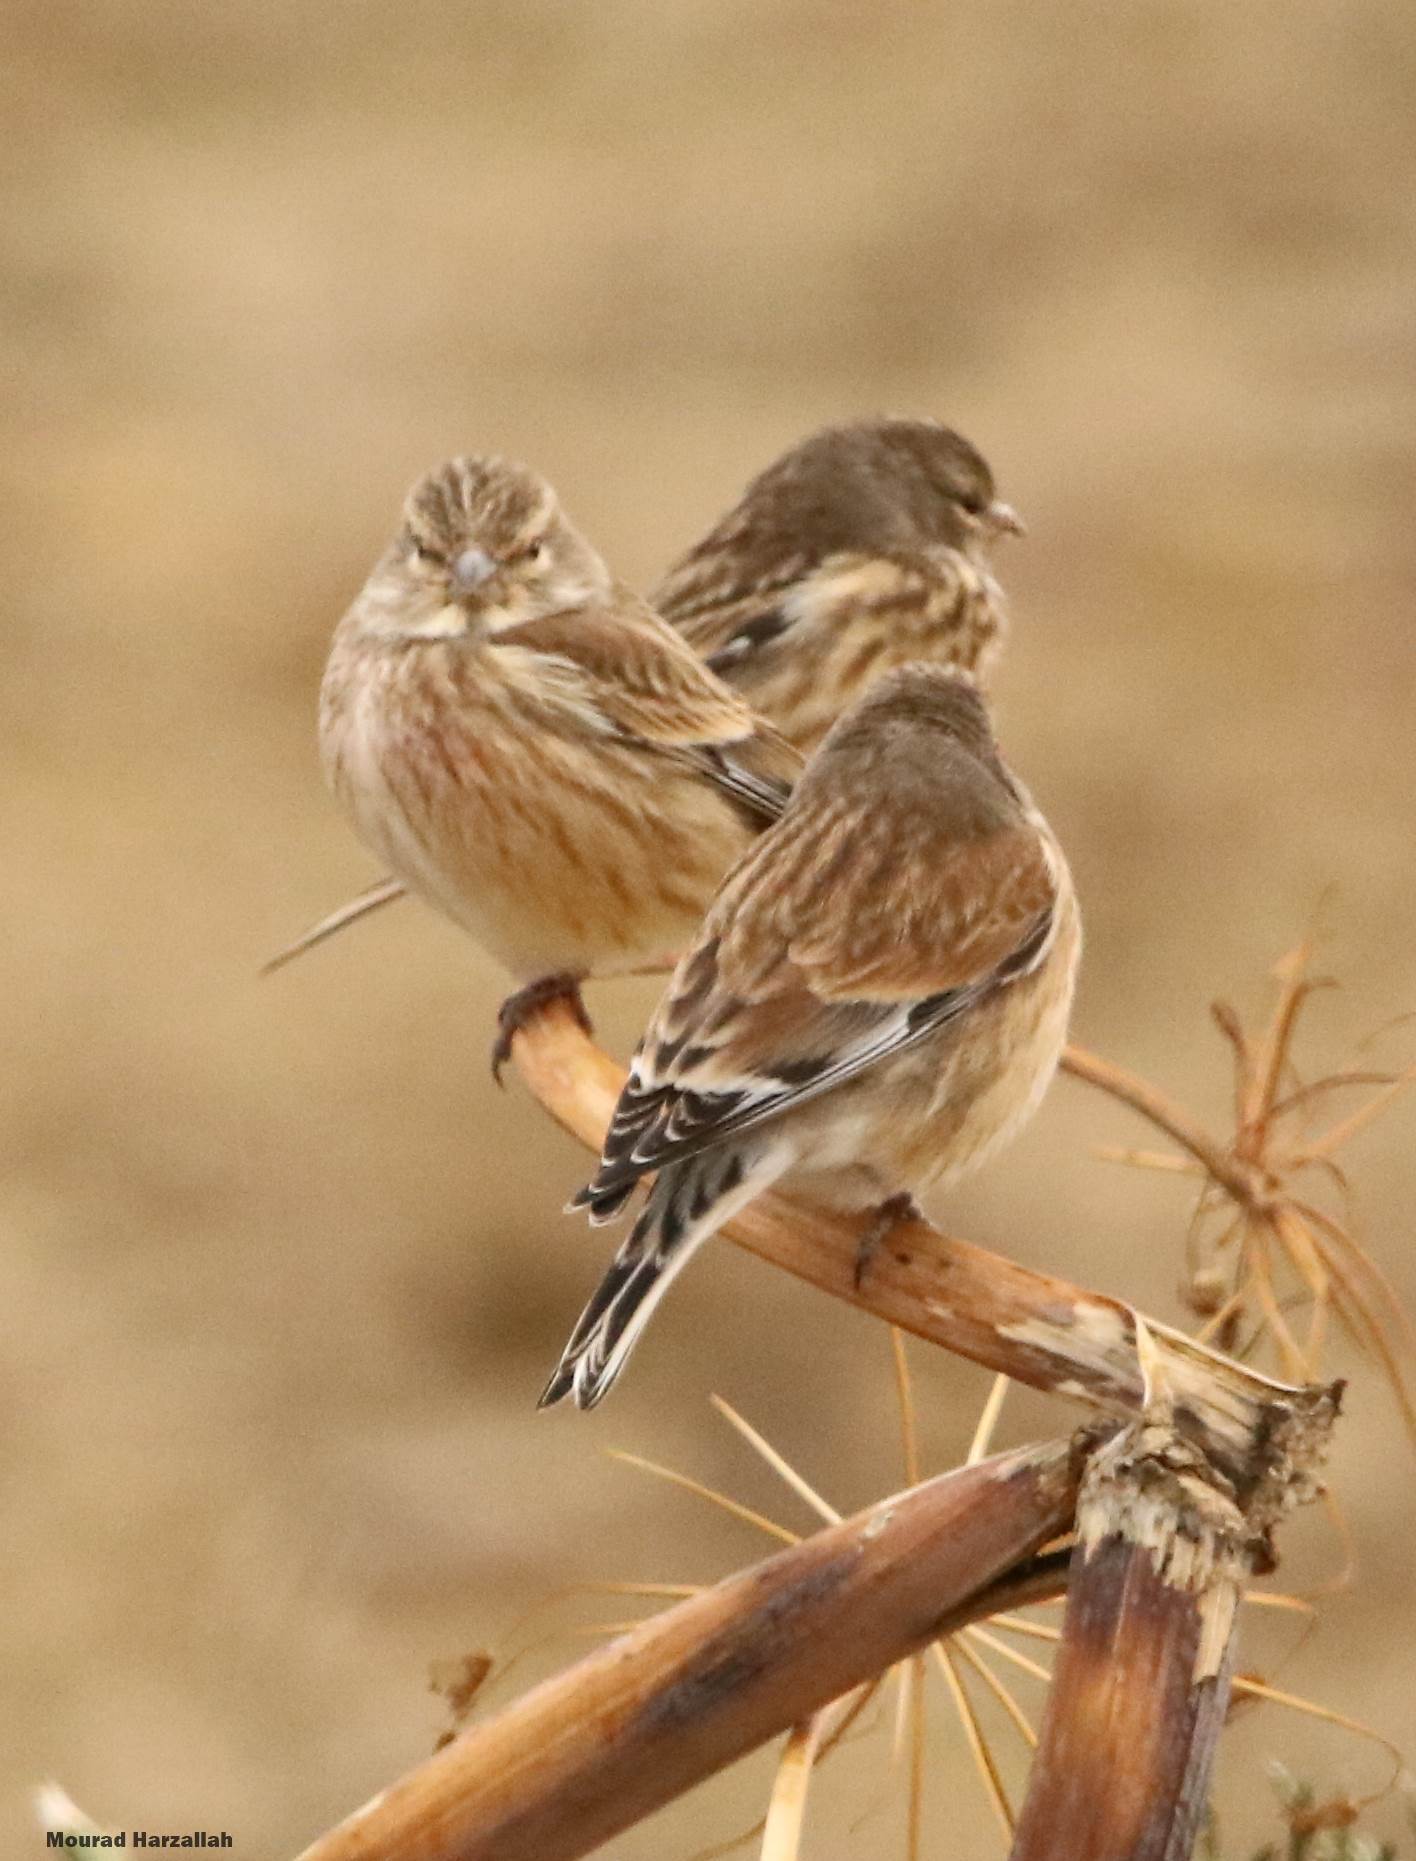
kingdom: Animalia
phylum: Chordata
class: Aves
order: Passeriformes
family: Fringillidae
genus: Linaria
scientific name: Linaria cannabina
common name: Common linnet
